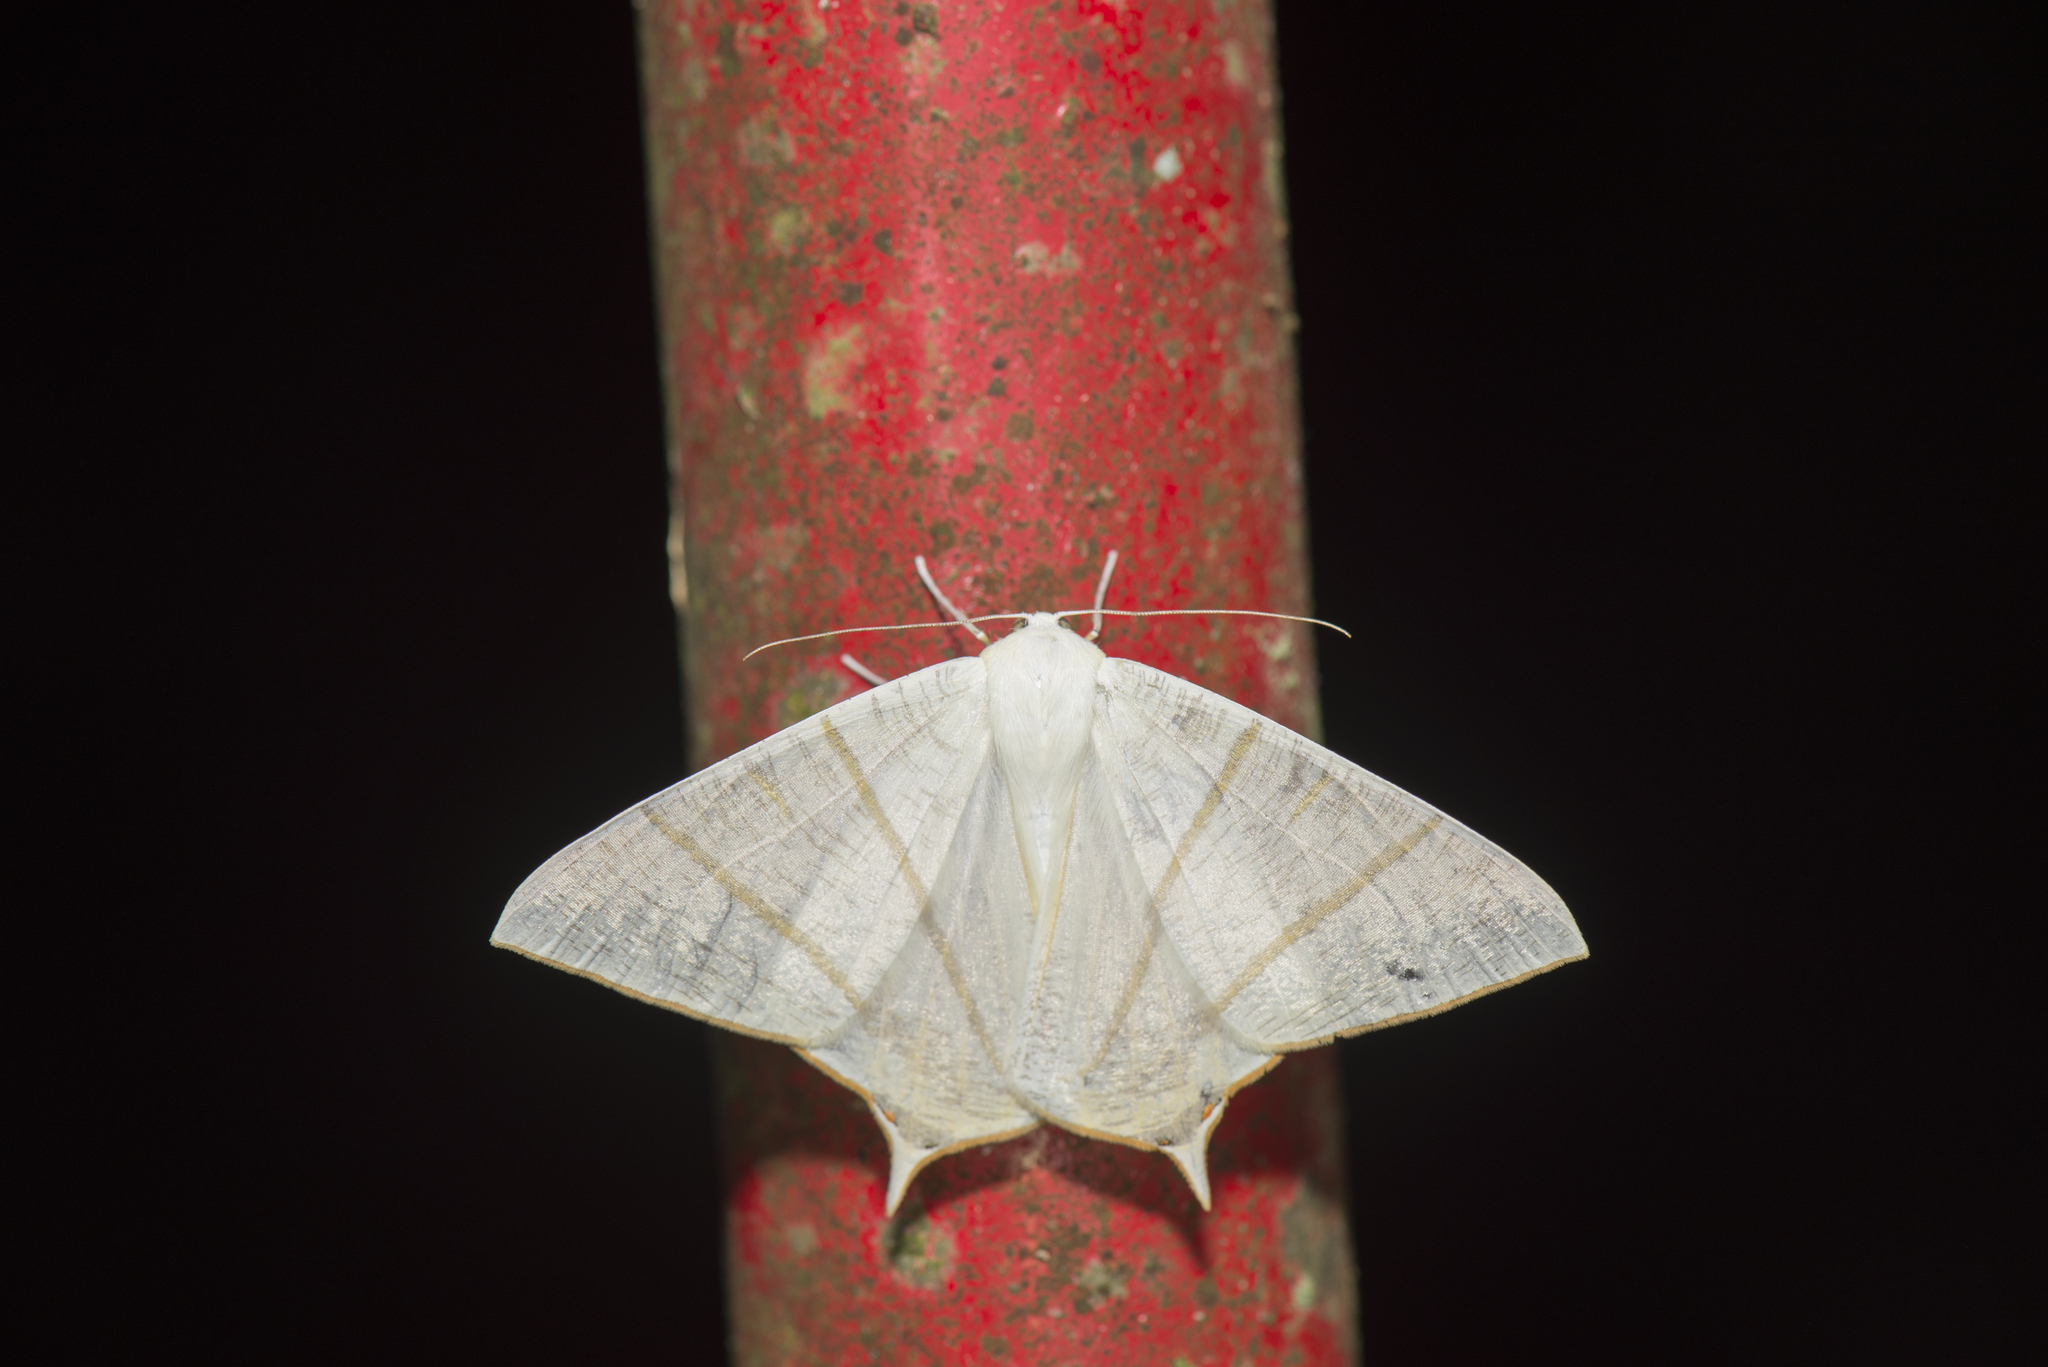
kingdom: Animalia
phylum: Arthropoda
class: Insecta
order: Lepidoptera
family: Geometridae
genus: Ourapteryx
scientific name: Ourapteryx pallidula
